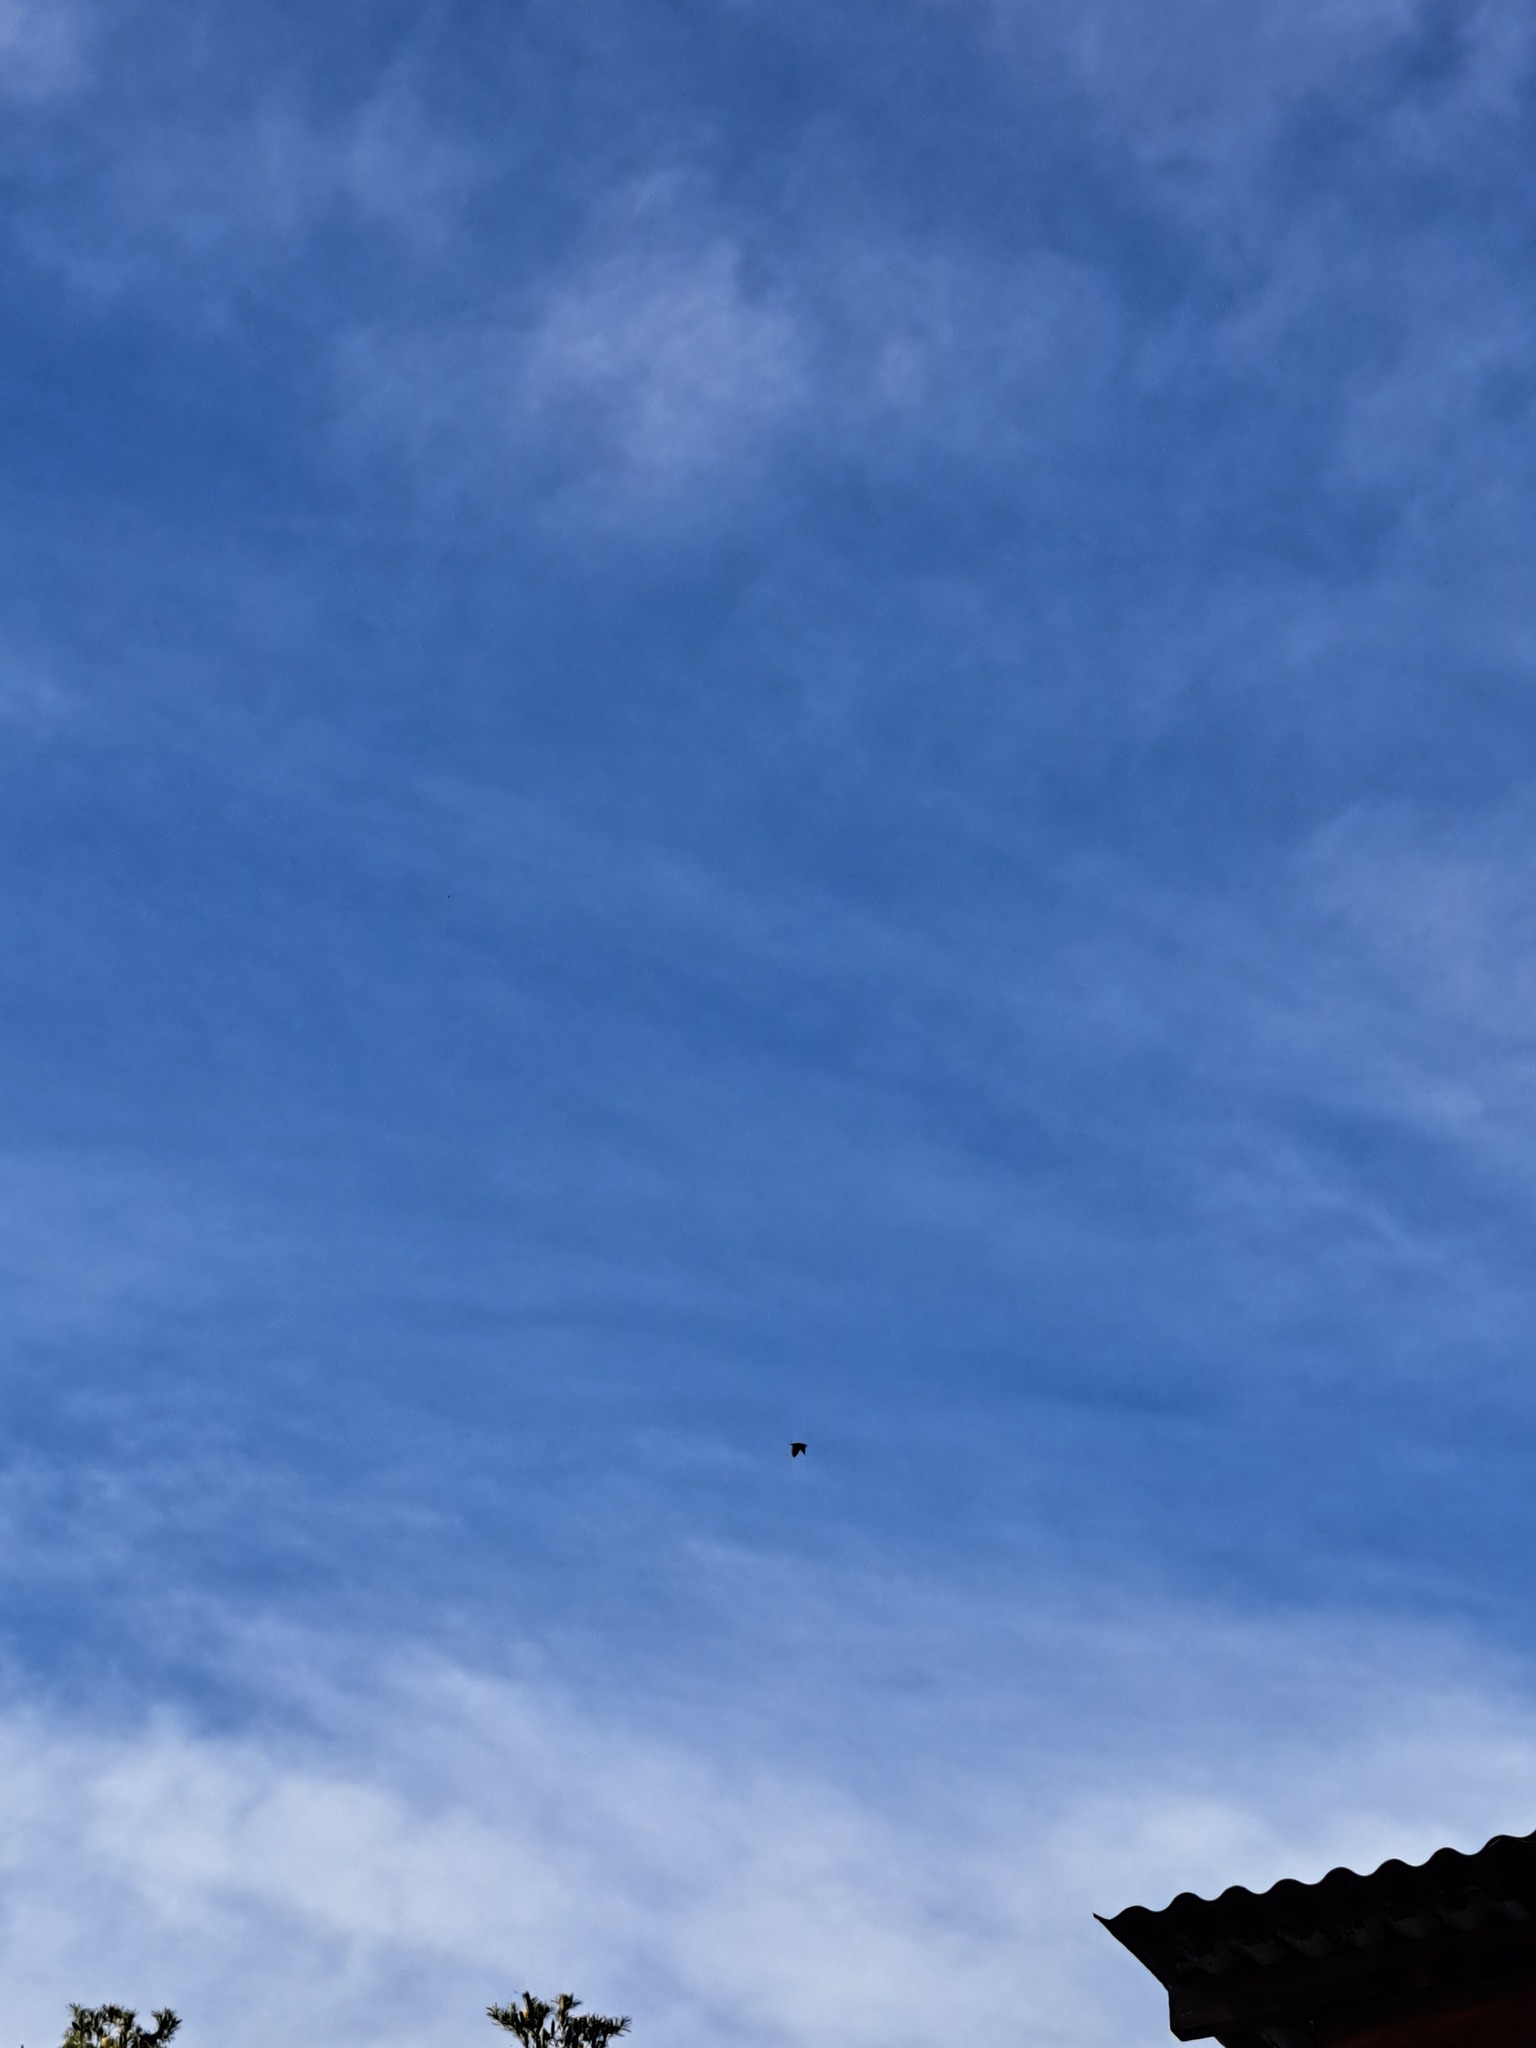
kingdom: Animalia
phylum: Chordata
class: Aves
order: Passeriformes
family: Sturnidae
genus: Sturnus
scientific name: Sturnus vulgaris
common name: Common starling
